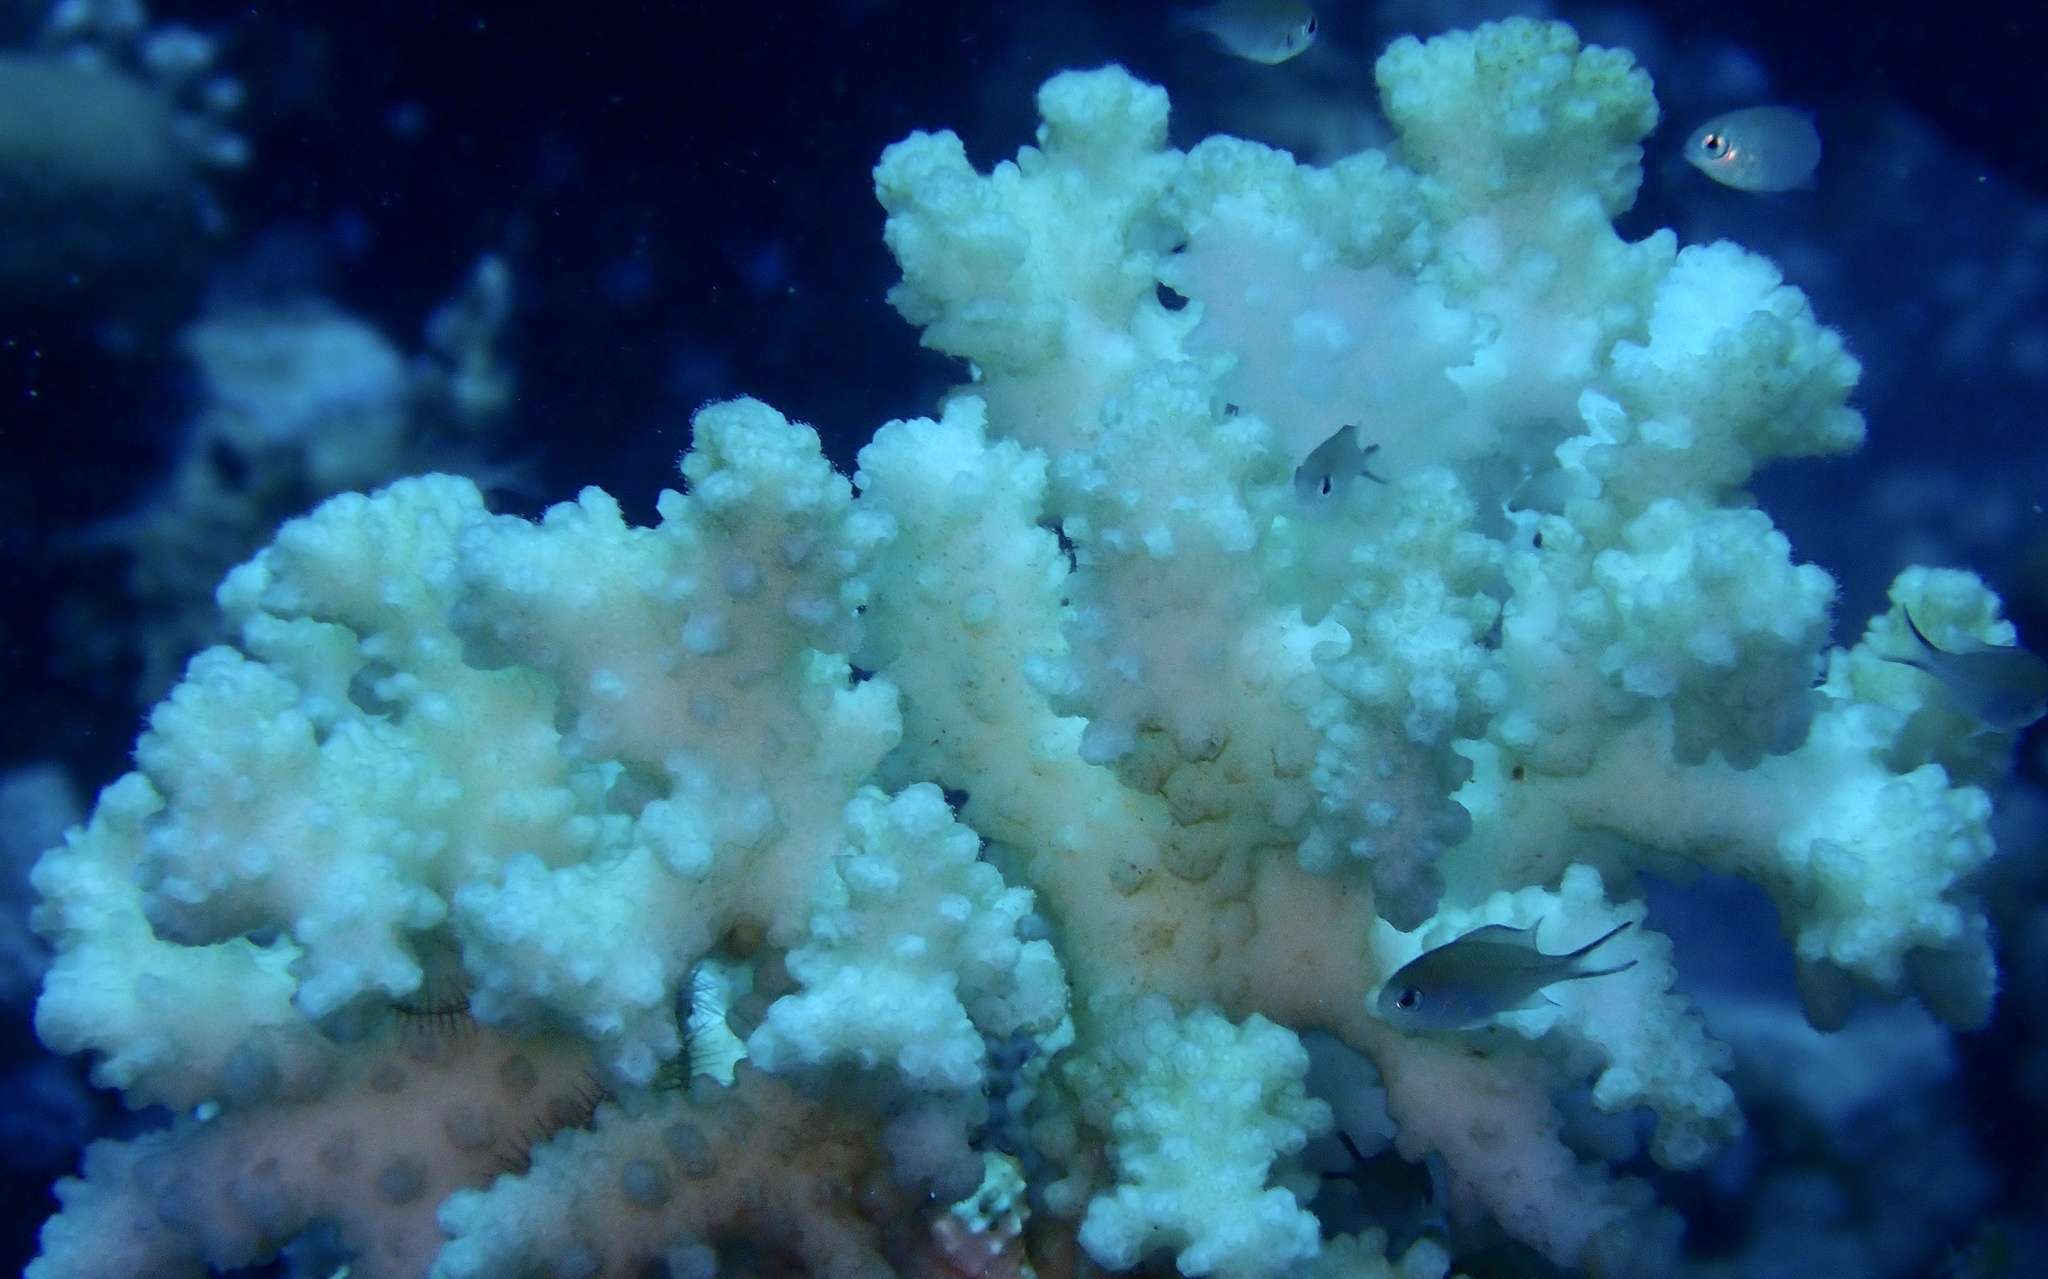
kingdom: Animalia
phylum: Cnidaria
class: Anthozoa
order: Scleractinia
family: Pocilloporidae
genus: Pocillopora
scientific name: Pocillopora verrucosa
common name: Cauliflower coral
